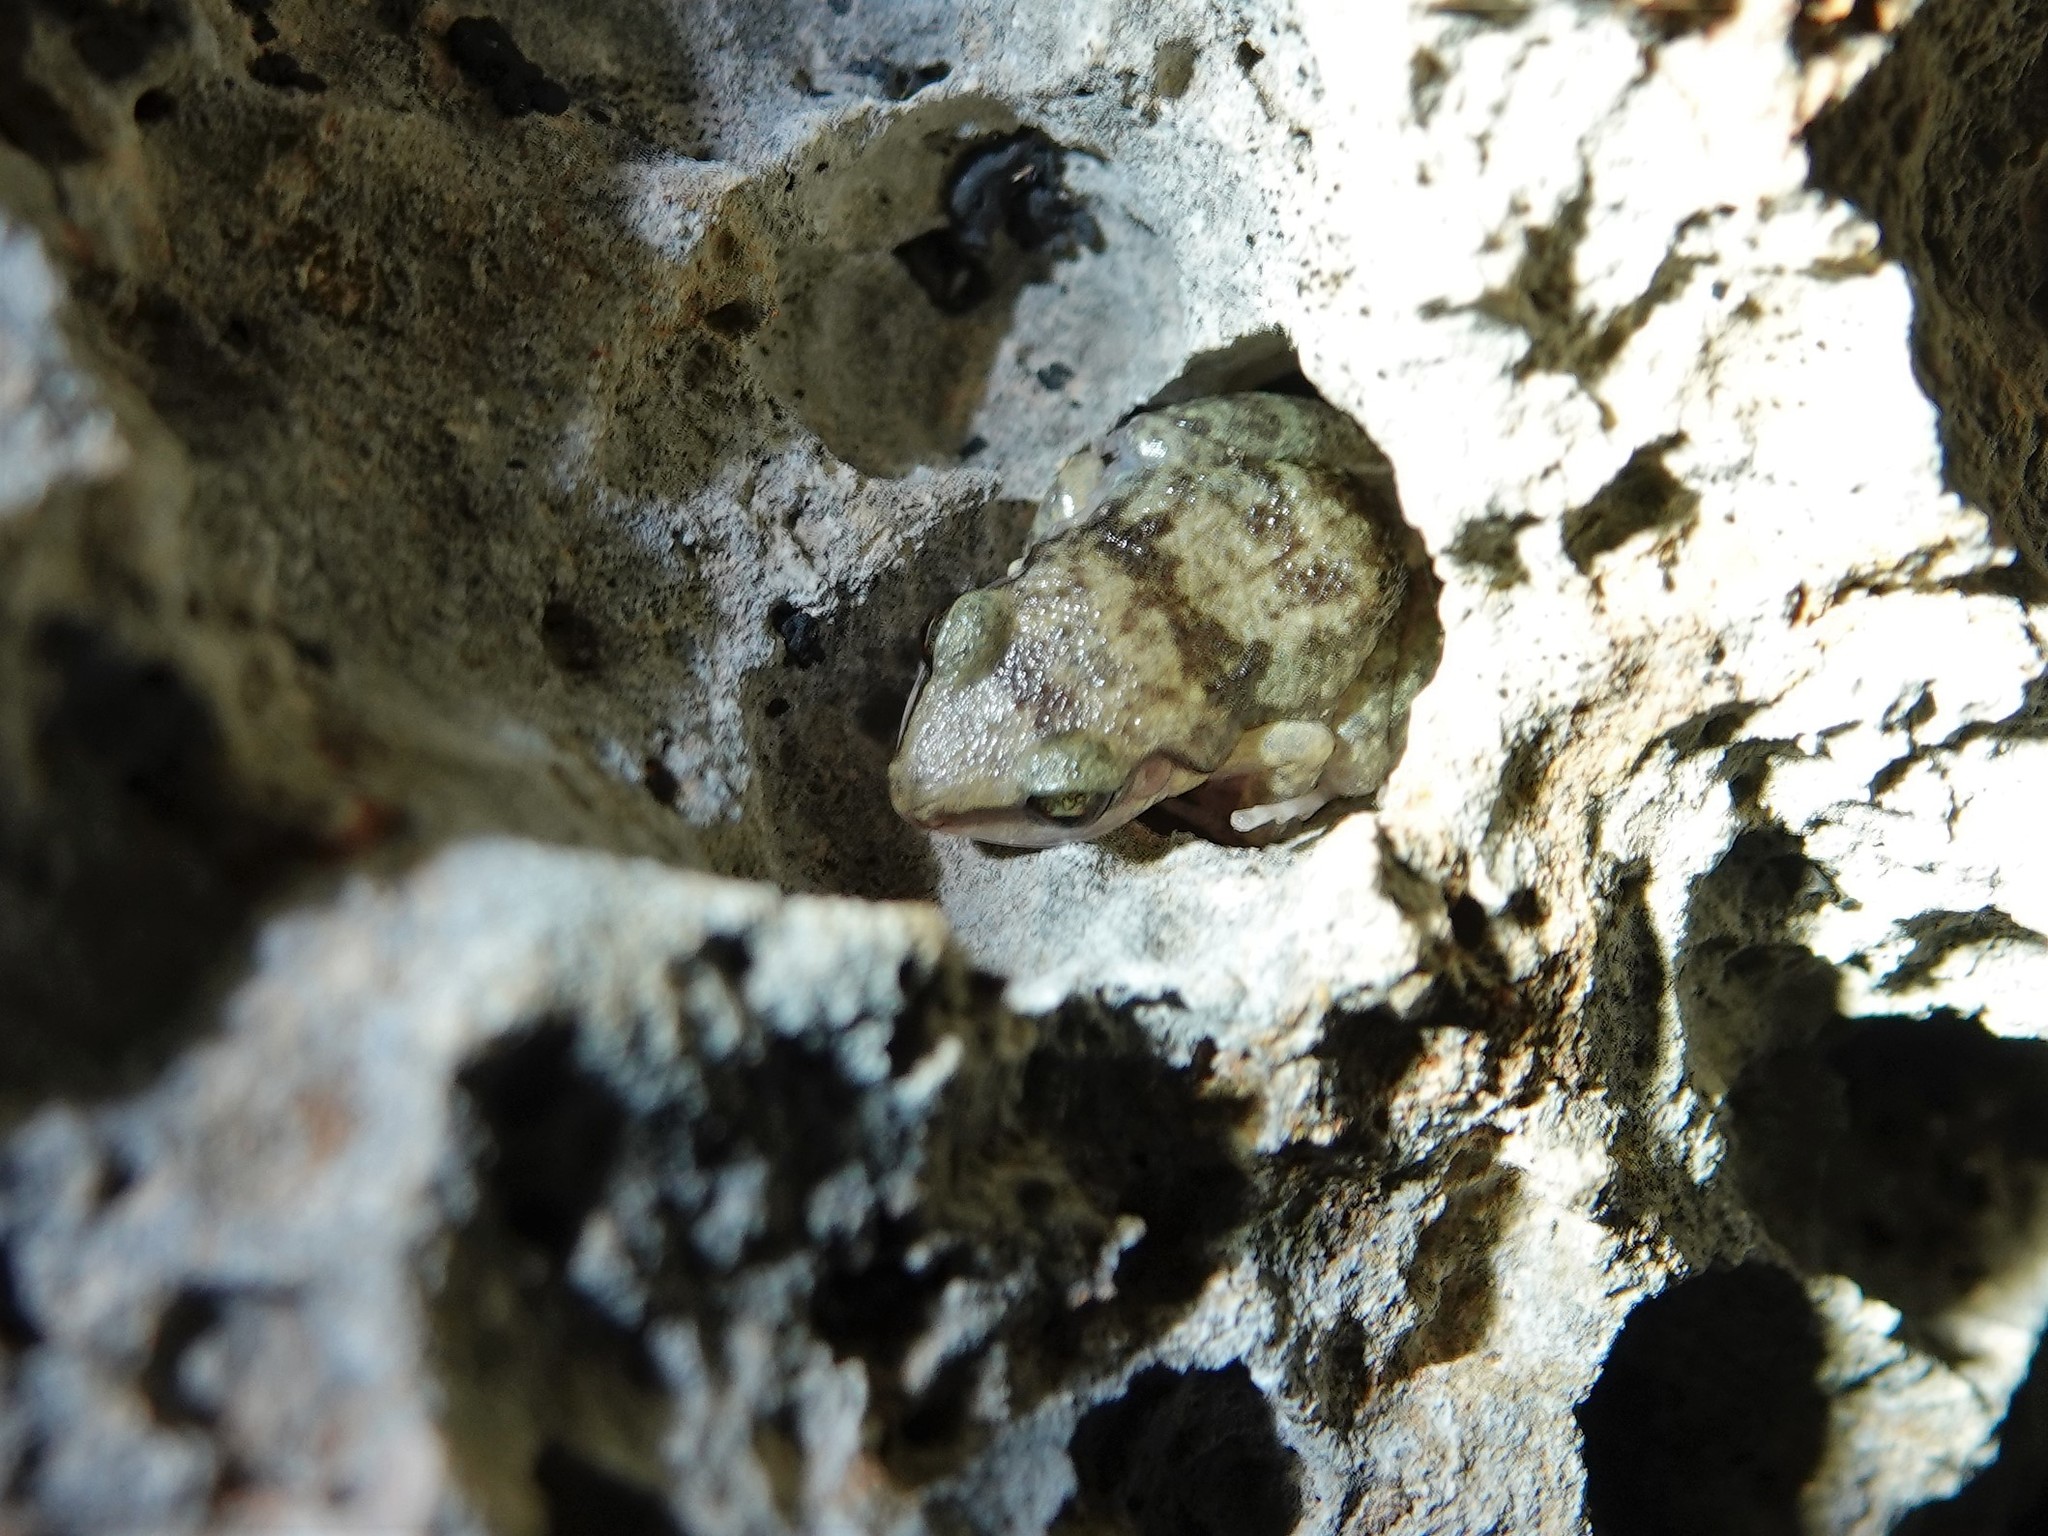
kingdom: Animalia
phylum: Chordata
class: Amphibia
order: Anura
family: Eleutherodactylidae
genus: Eleutherodactylus
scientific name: Eleutherodactylus etheridgei
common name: Oriente coastal frog
